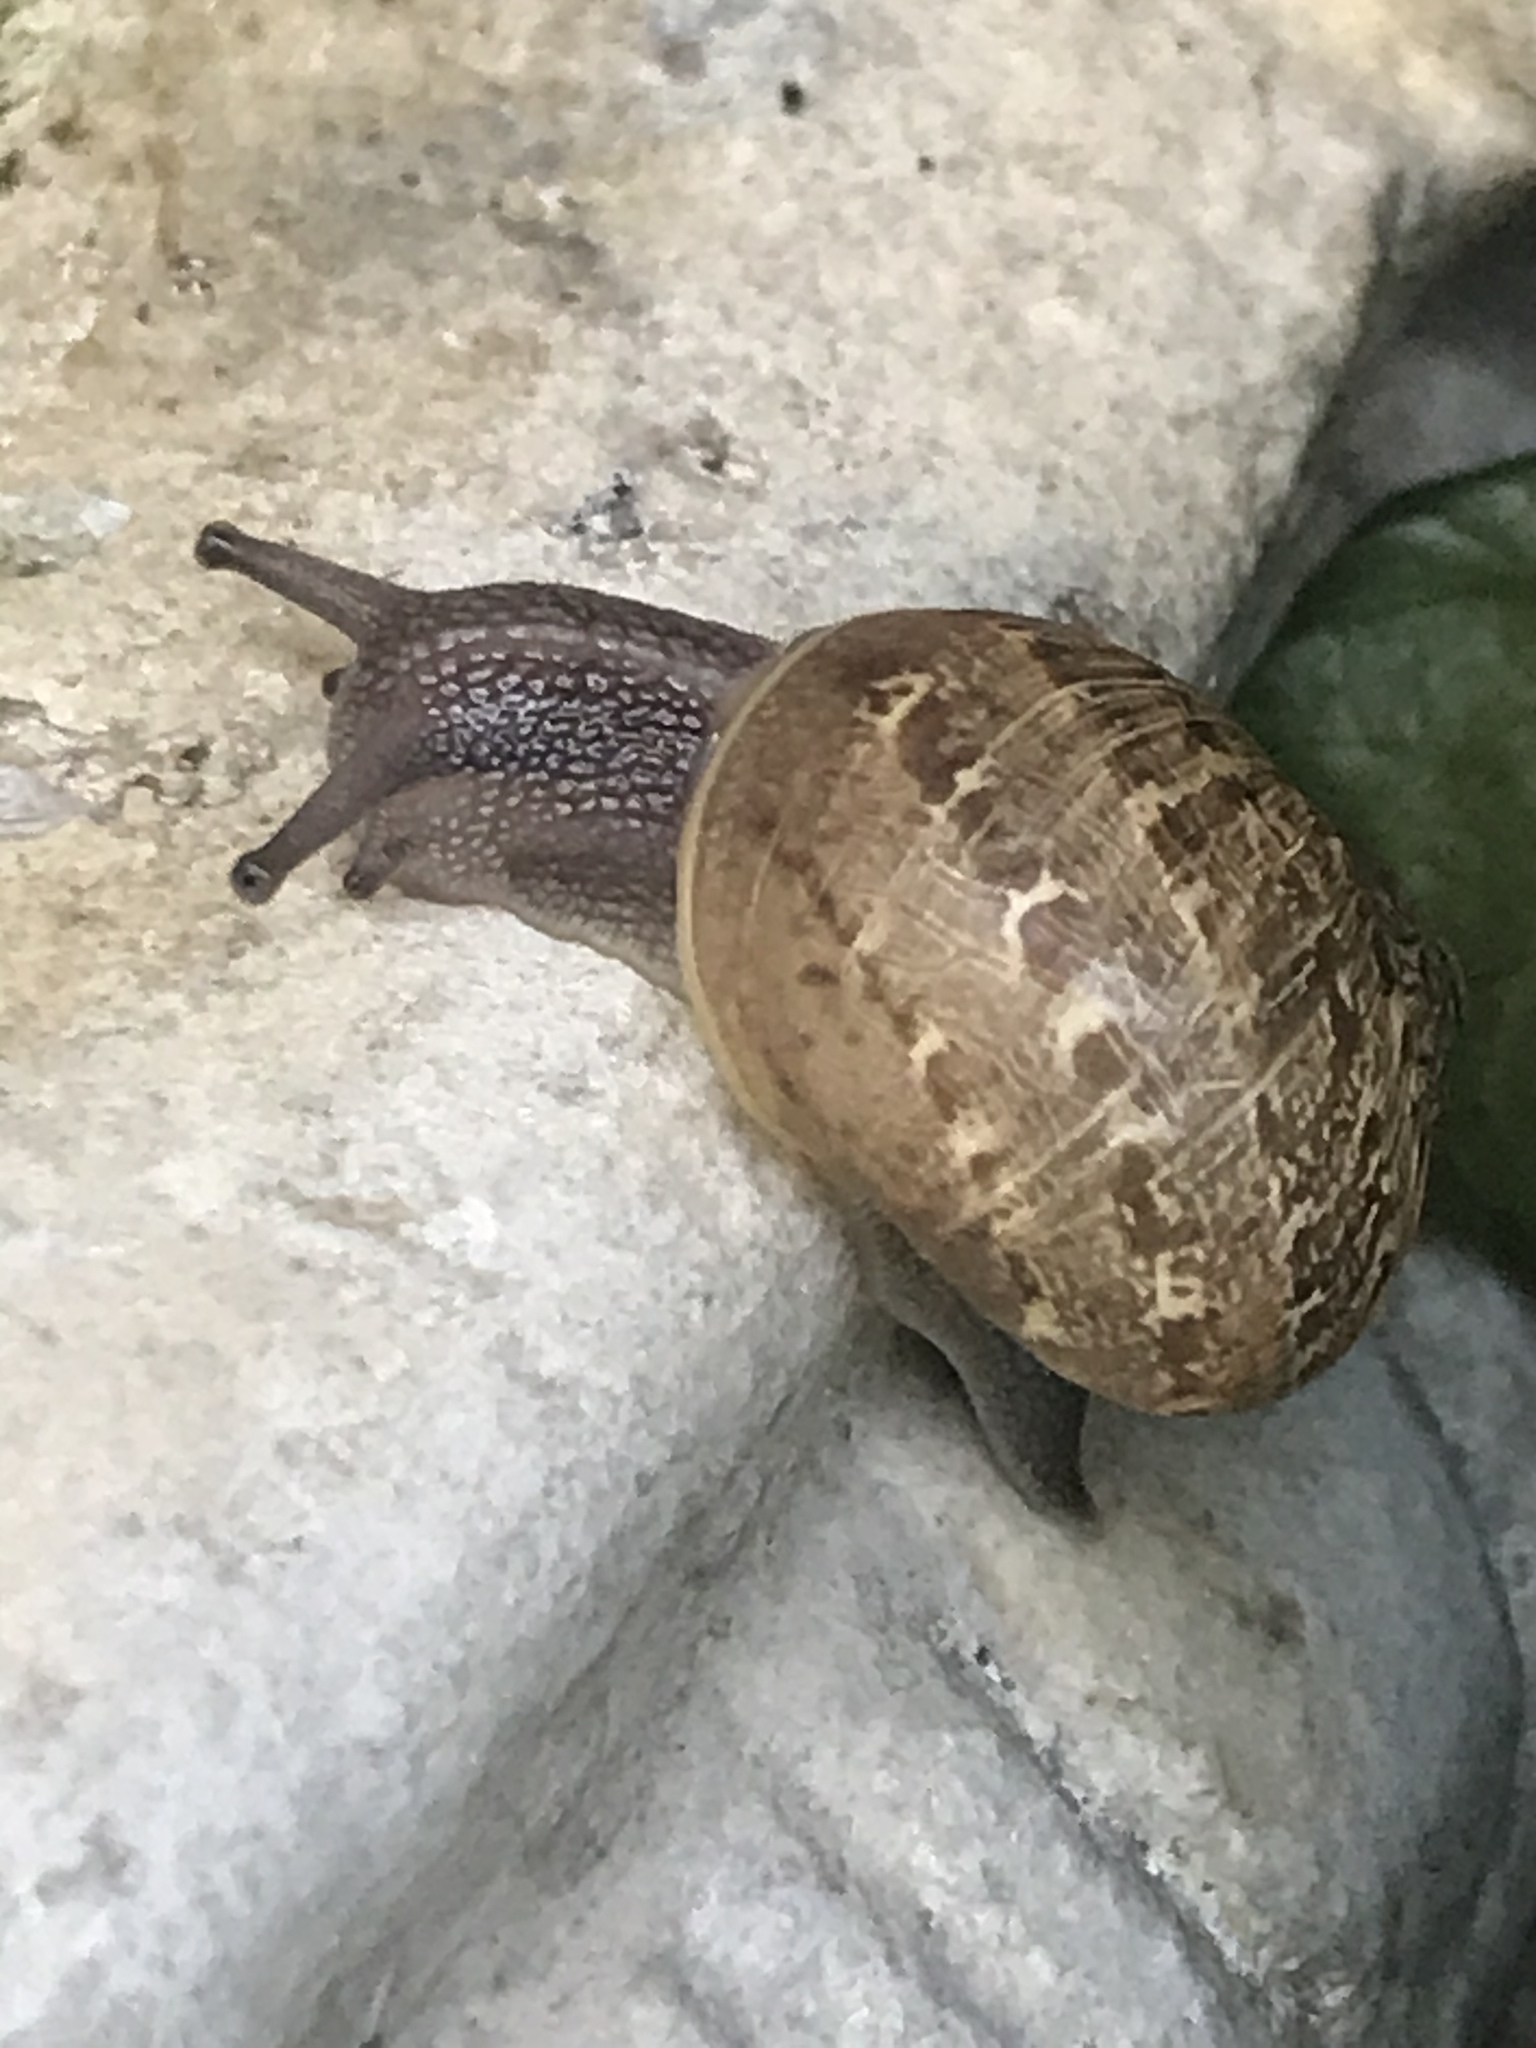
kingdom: Animalia
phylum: Mollusca
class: Gastropoda
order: Stylommatophora
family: Helicidae
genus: Cornu
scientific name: Cornu aspersum
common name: Brown garden snail
